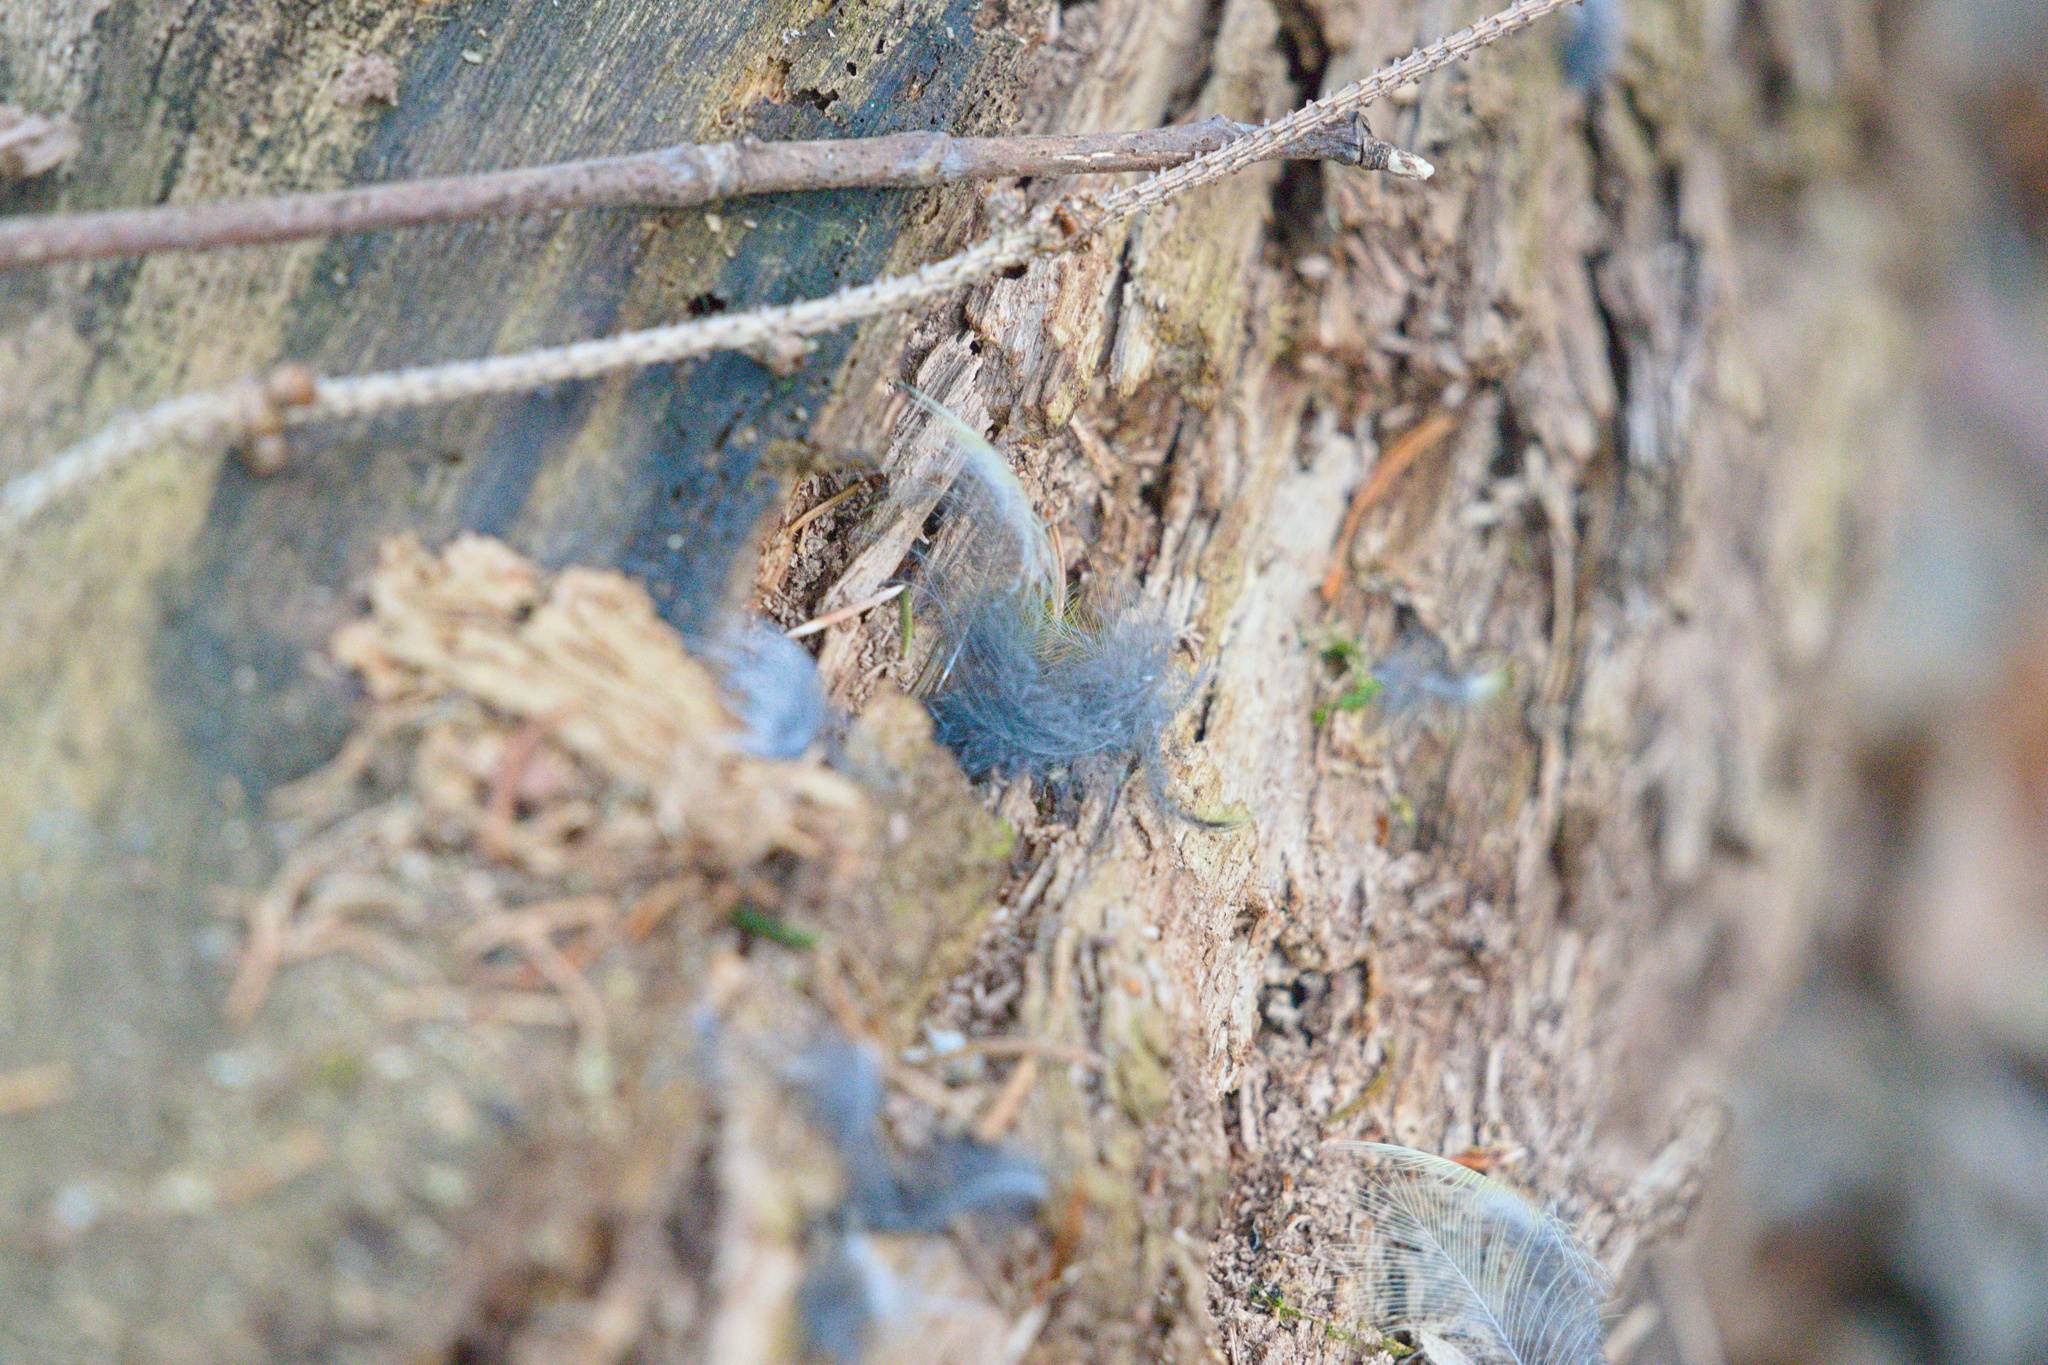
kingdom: Animalia
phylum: Chordata
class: Aves
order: Passeriformes
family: Paridae
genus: Parus
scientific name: Parus major
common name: Great tit
